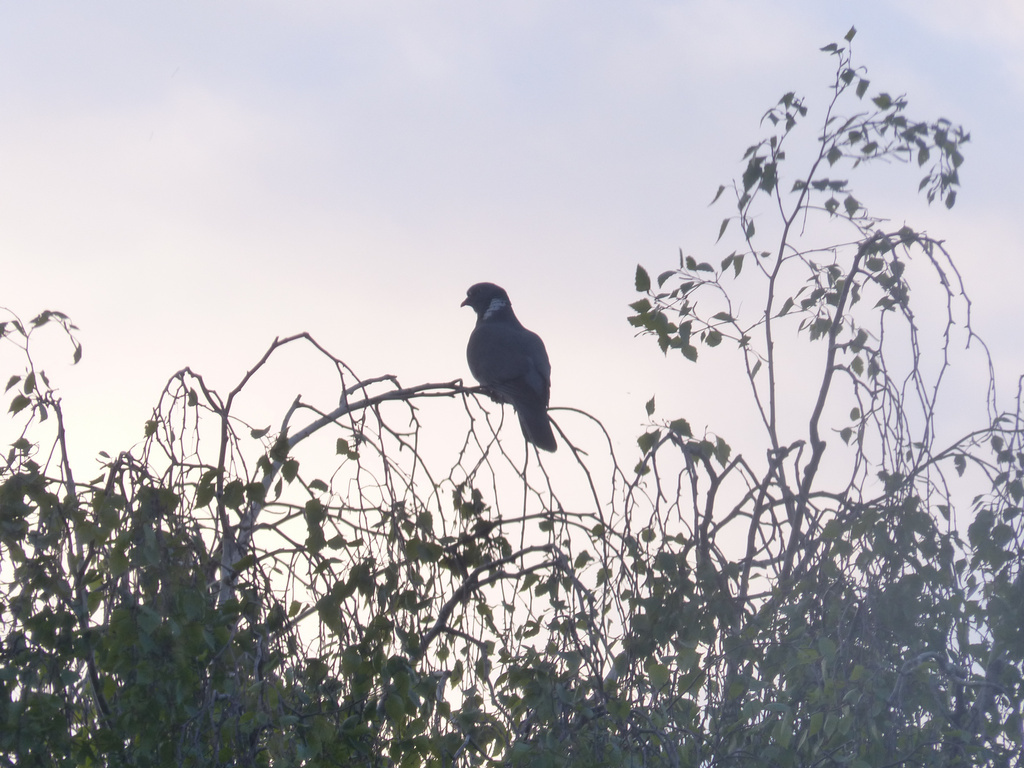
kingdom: Animalia
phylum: Chordata
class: Aves
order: Columbiformes
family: Columbidae
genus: Columba
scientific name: Columba palumbus
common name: Common wood pigeon
